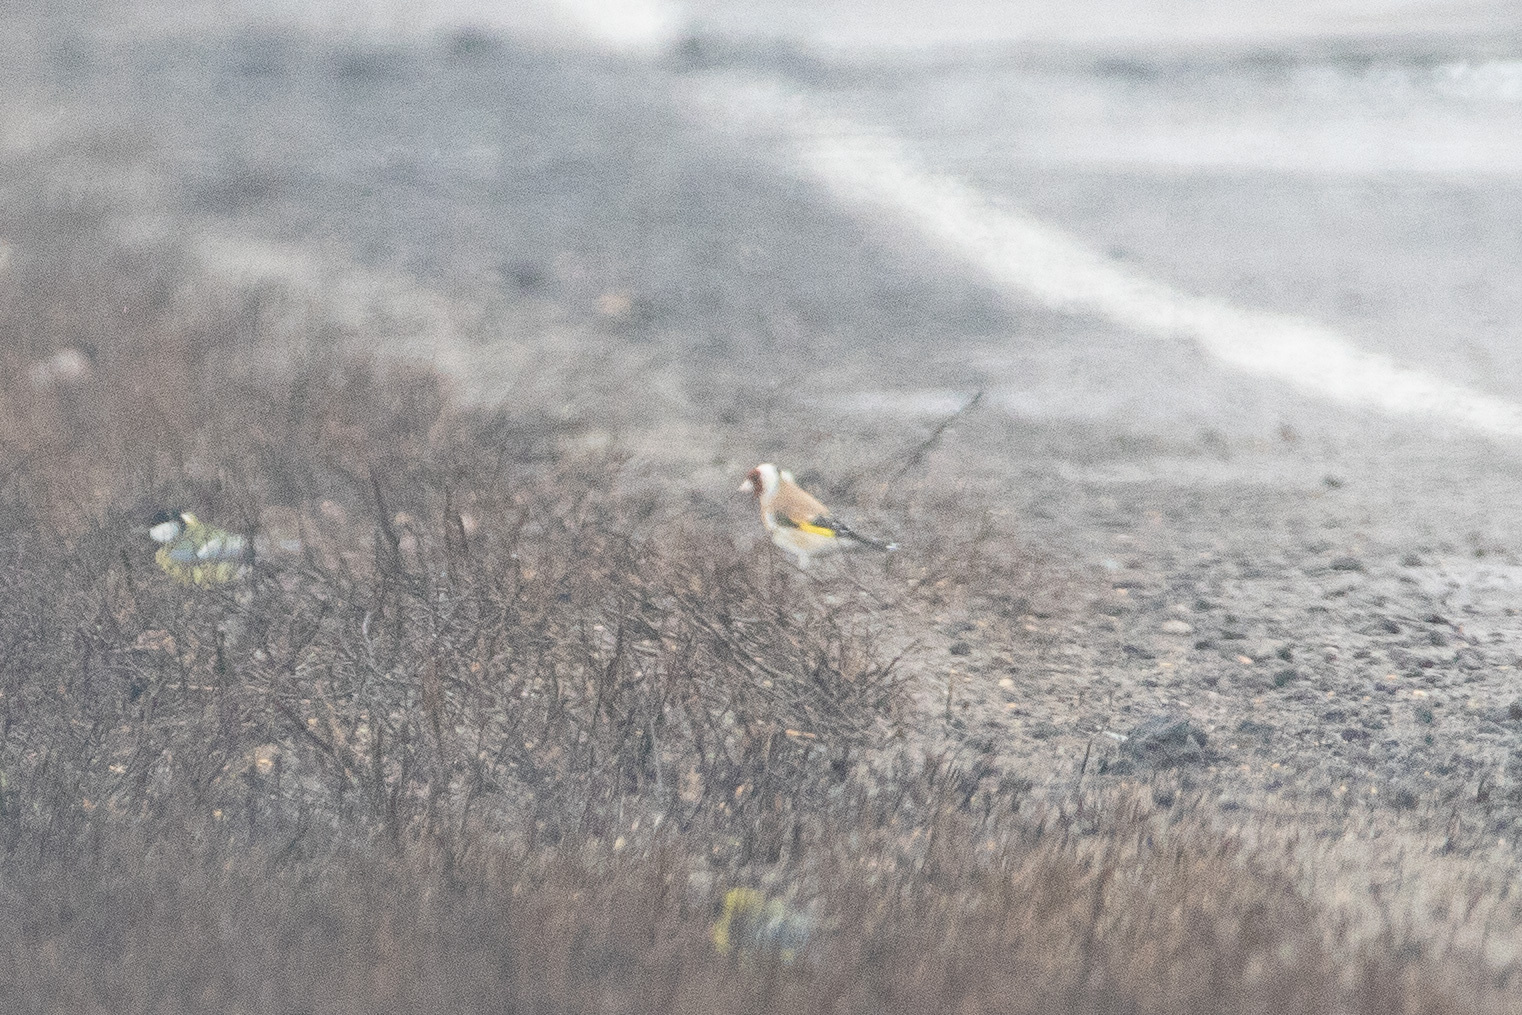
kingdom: Animalia
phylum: Chordata
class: Aves
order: Passeriformes
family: Fringillidae
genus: Carduelis
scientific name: Carduelis carduelis
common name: European goldfinch
